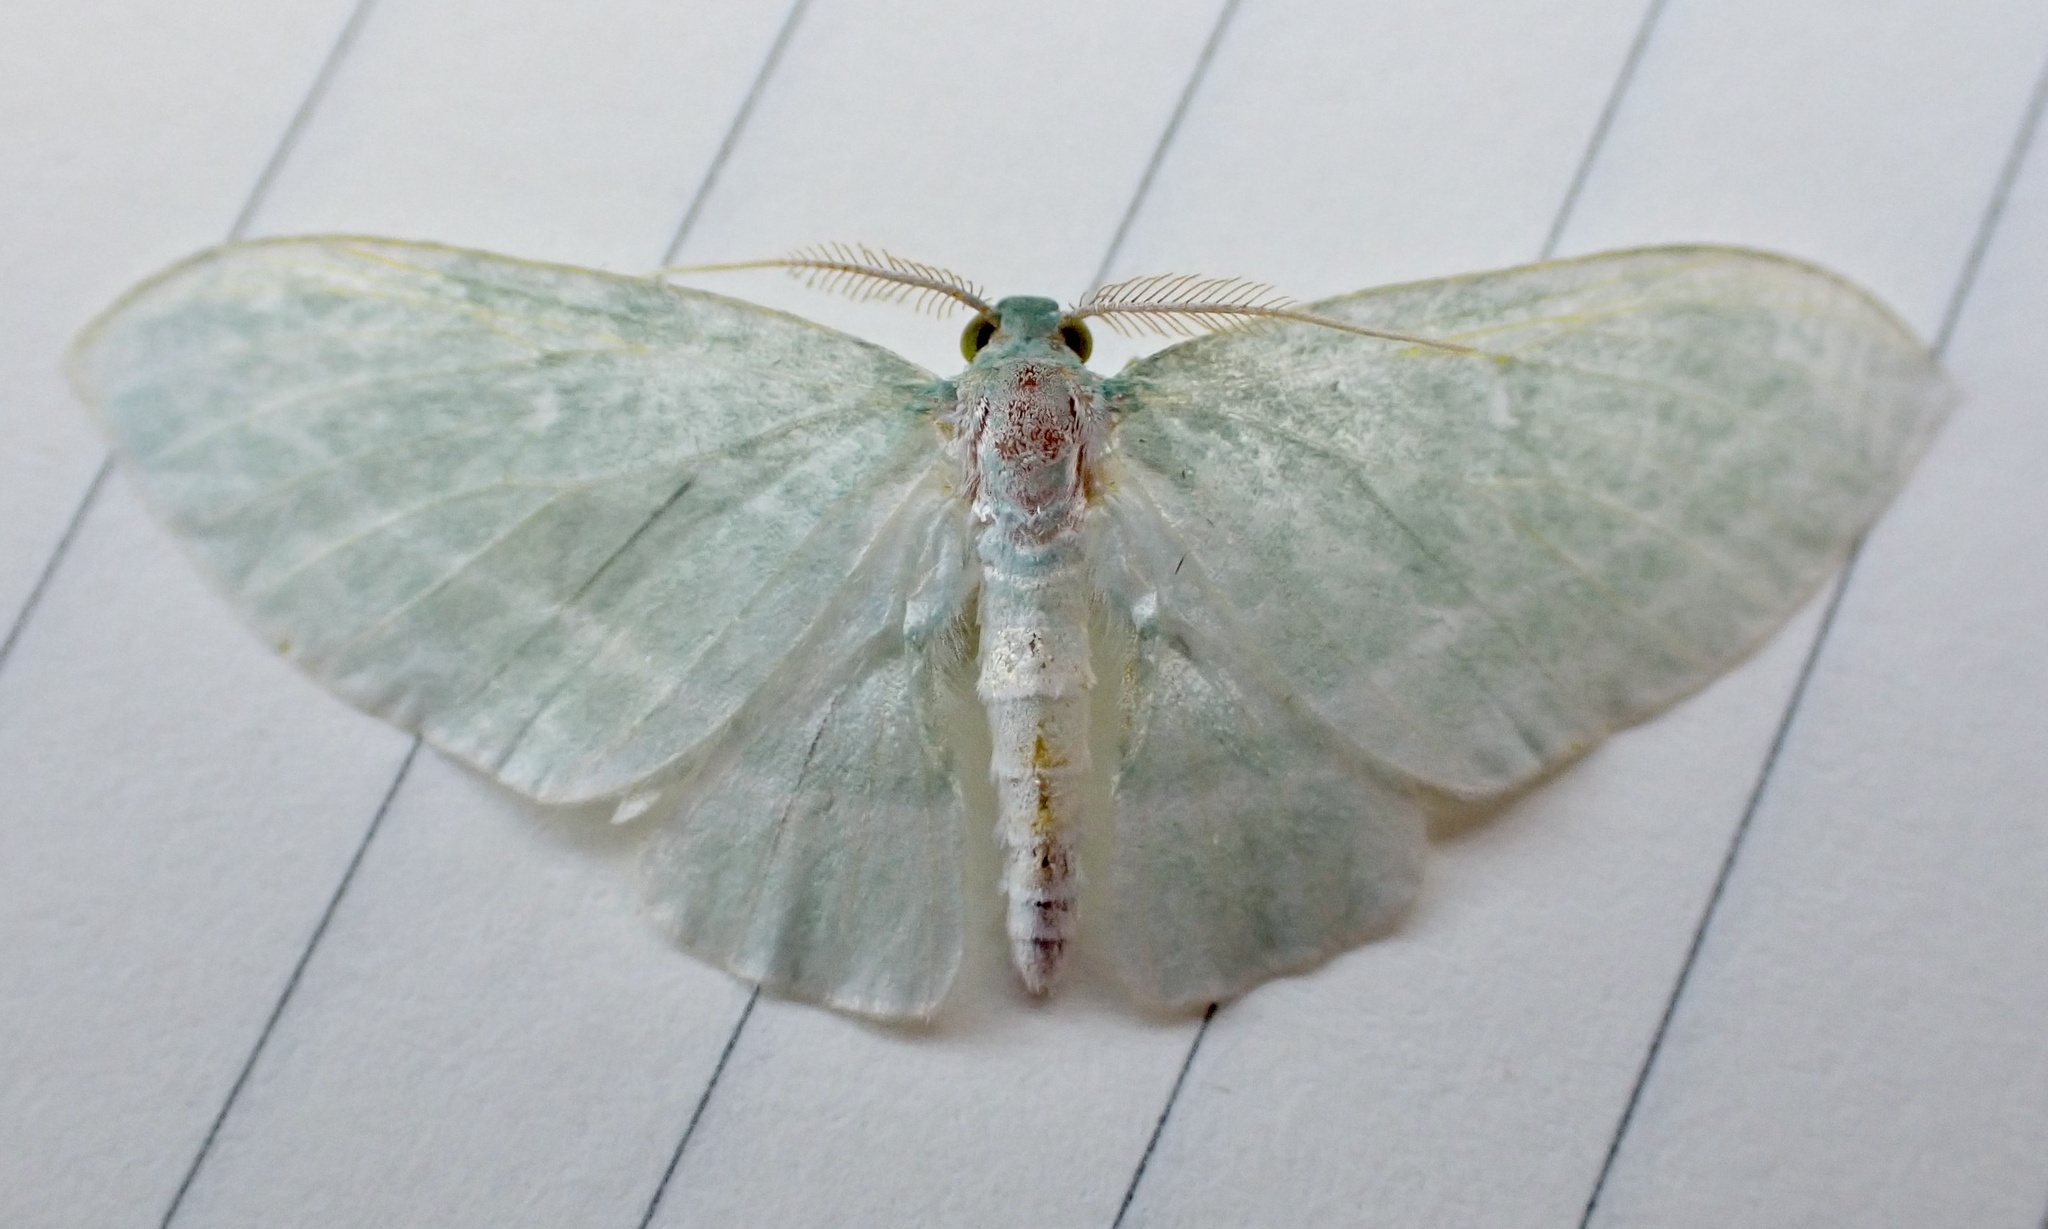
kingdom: Animalia
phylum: Arthropoda
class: Insecta
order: Lepidoptera
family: Geometridae
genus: Dyspteris
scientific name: Dyspteris abortivaria
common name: Bad-wing
